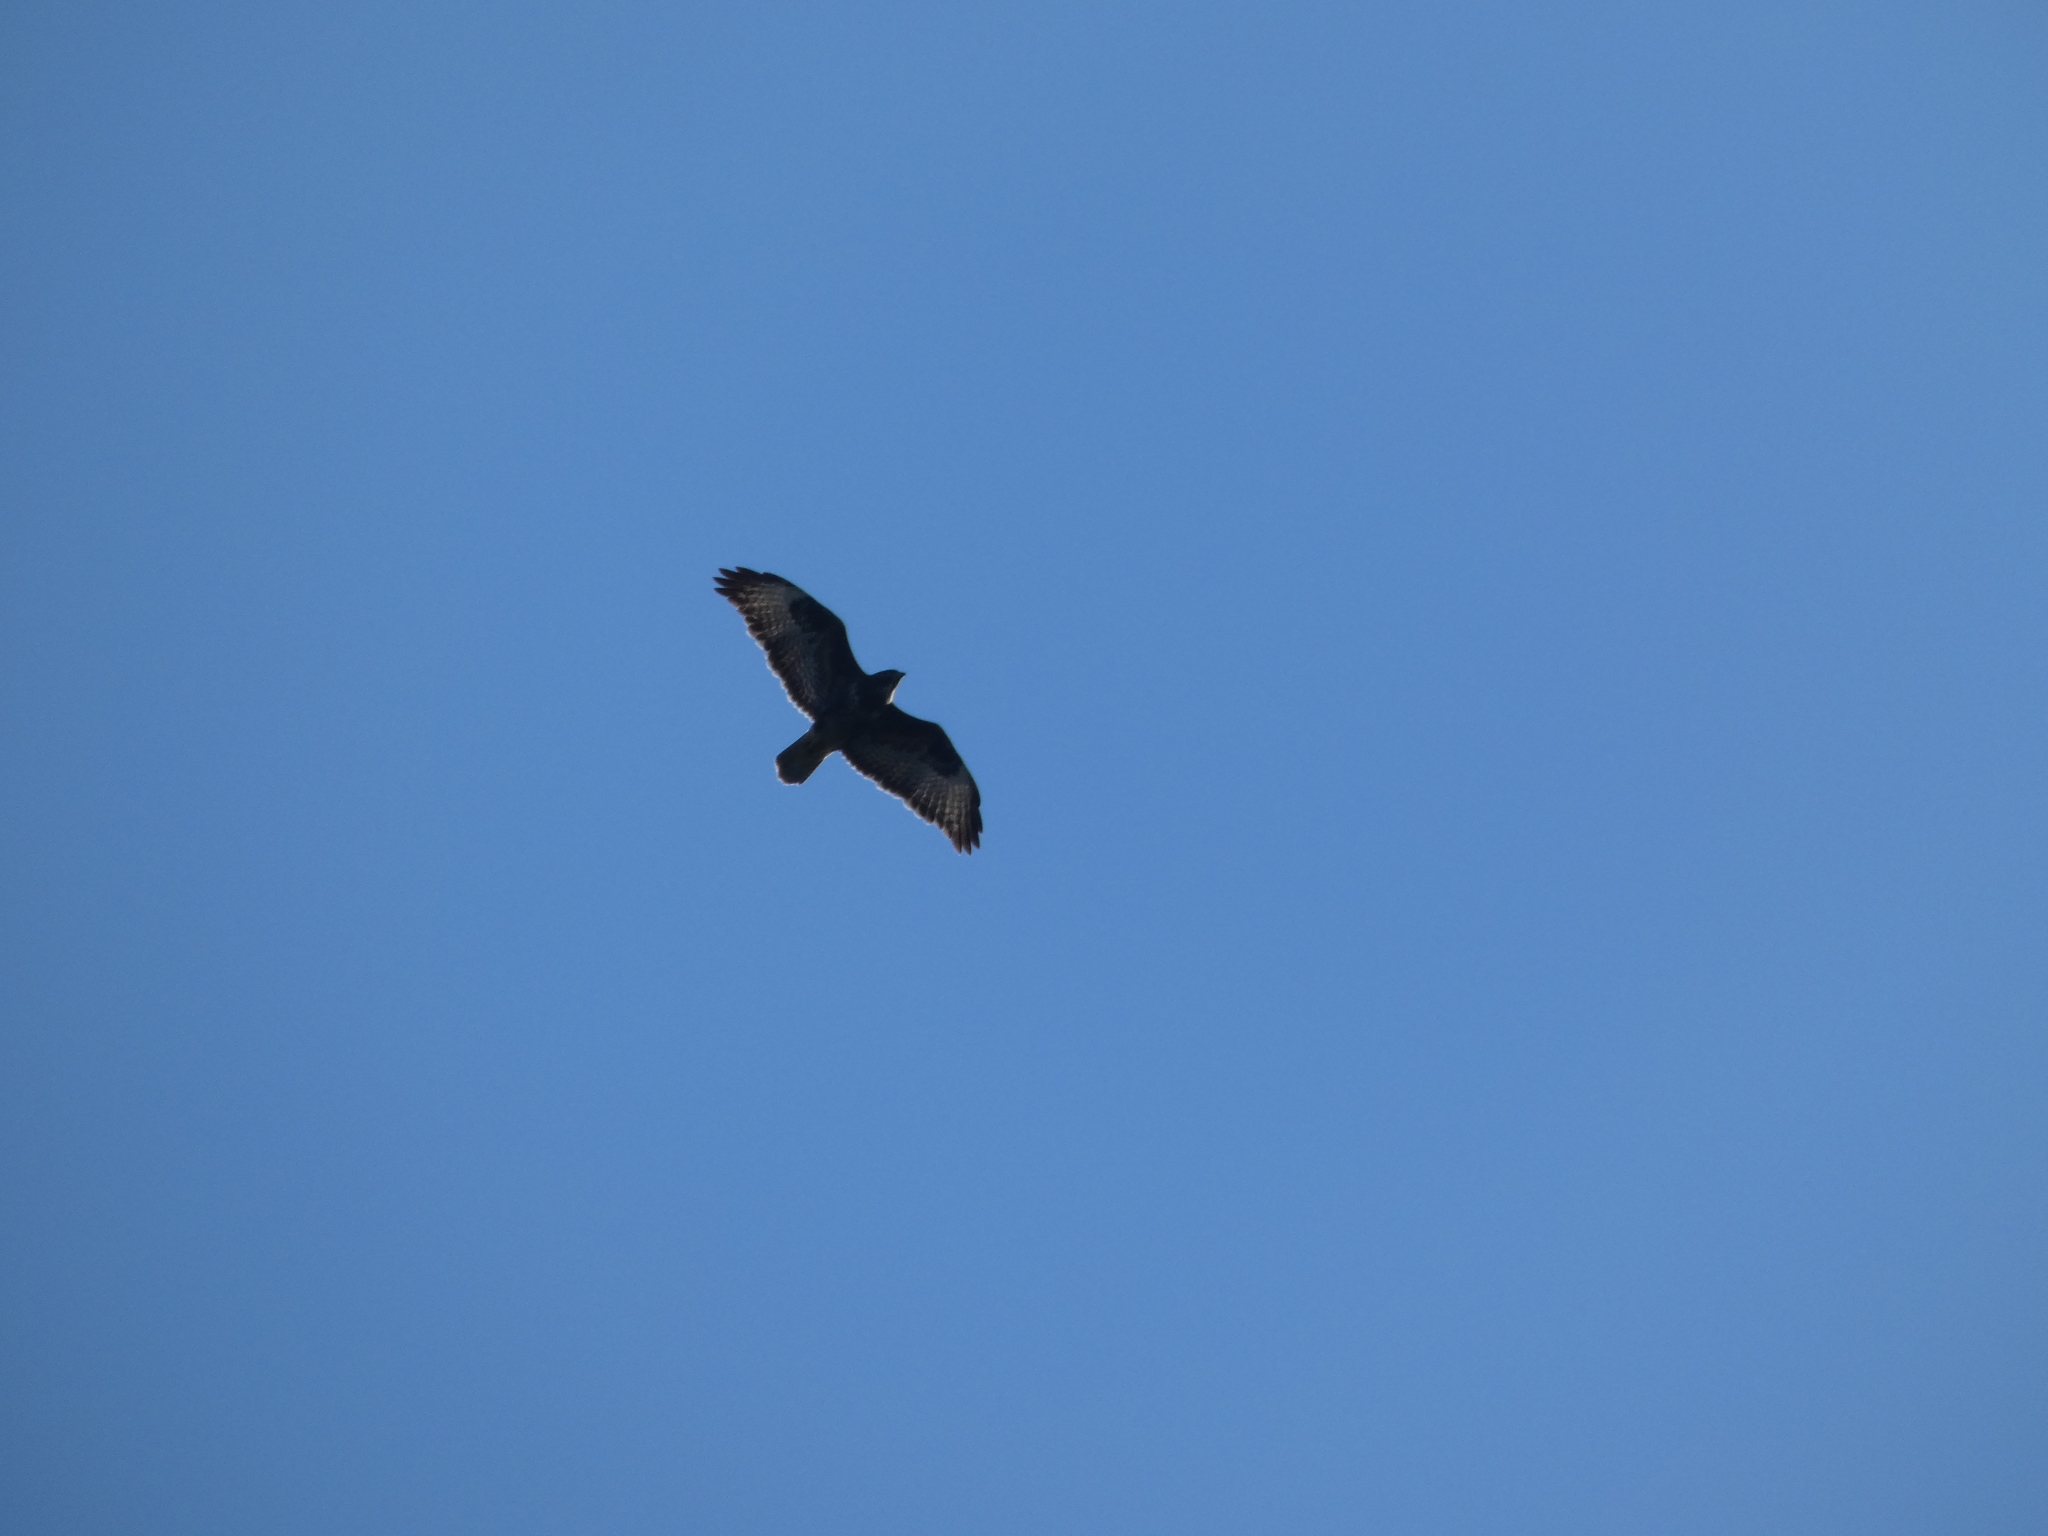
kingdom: Animalia
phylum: Chordata
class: Aves
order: Accipitriformes
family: Accipitridae
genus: Buteo
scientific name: Buteo buteo
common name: Common buzzard
